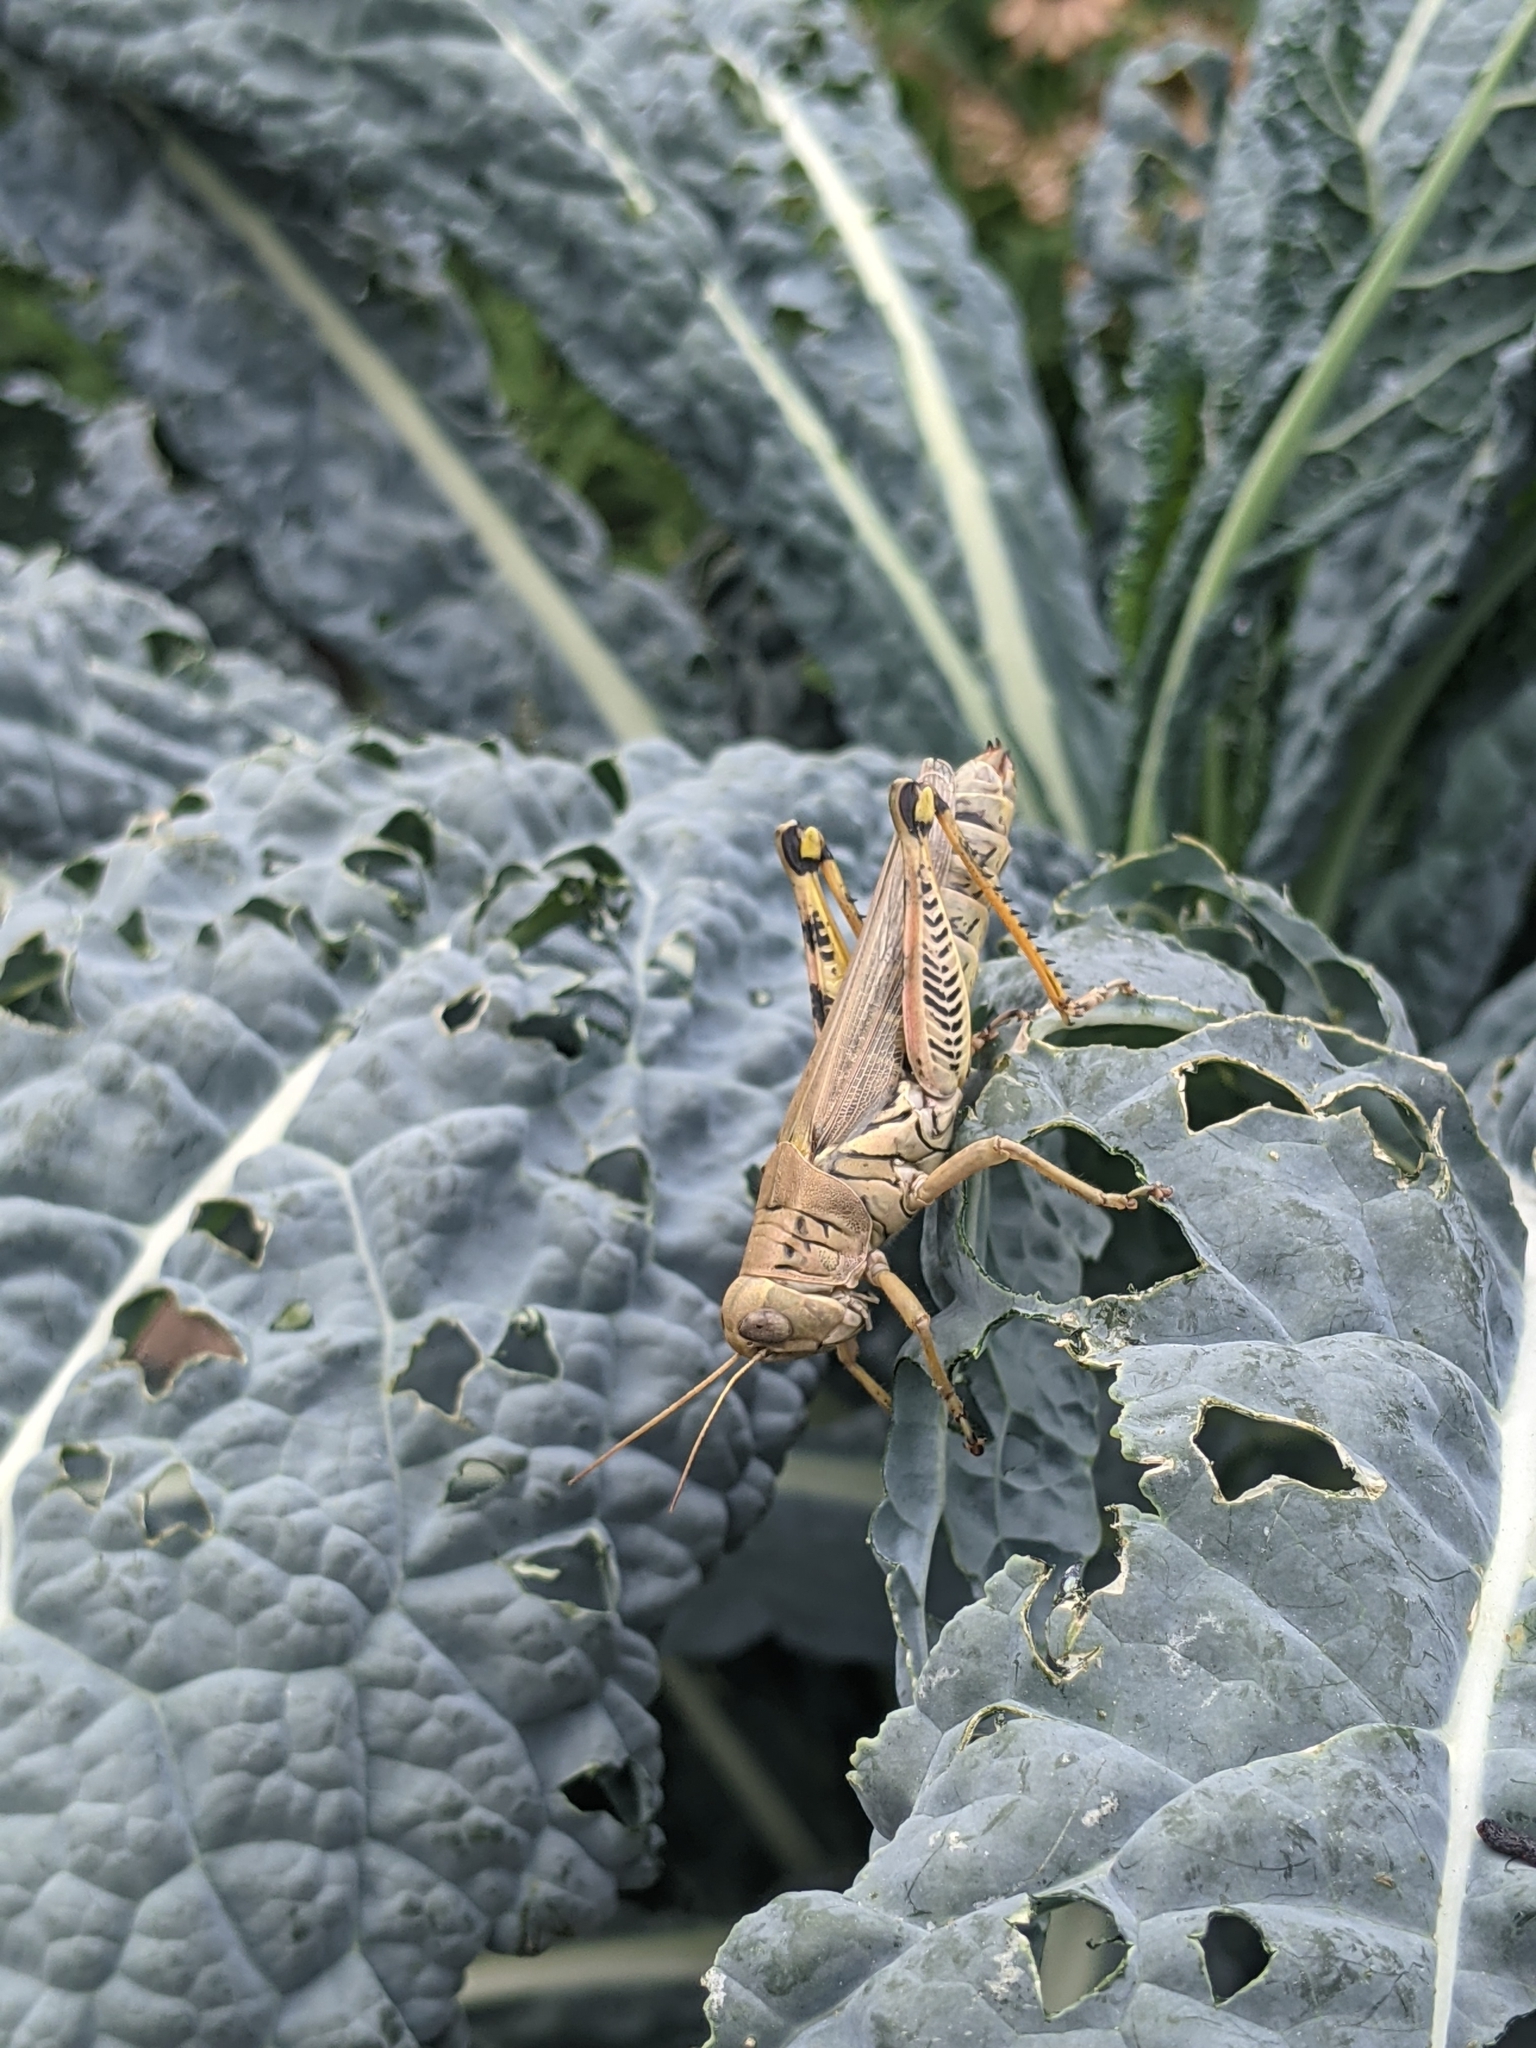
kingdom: Animalia
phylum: Arthropoda
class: Insecta
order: Orthoptera
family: Acrididae
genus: Melanoplus
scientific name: Melanoplus differentialis
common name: Differential grasshopper
